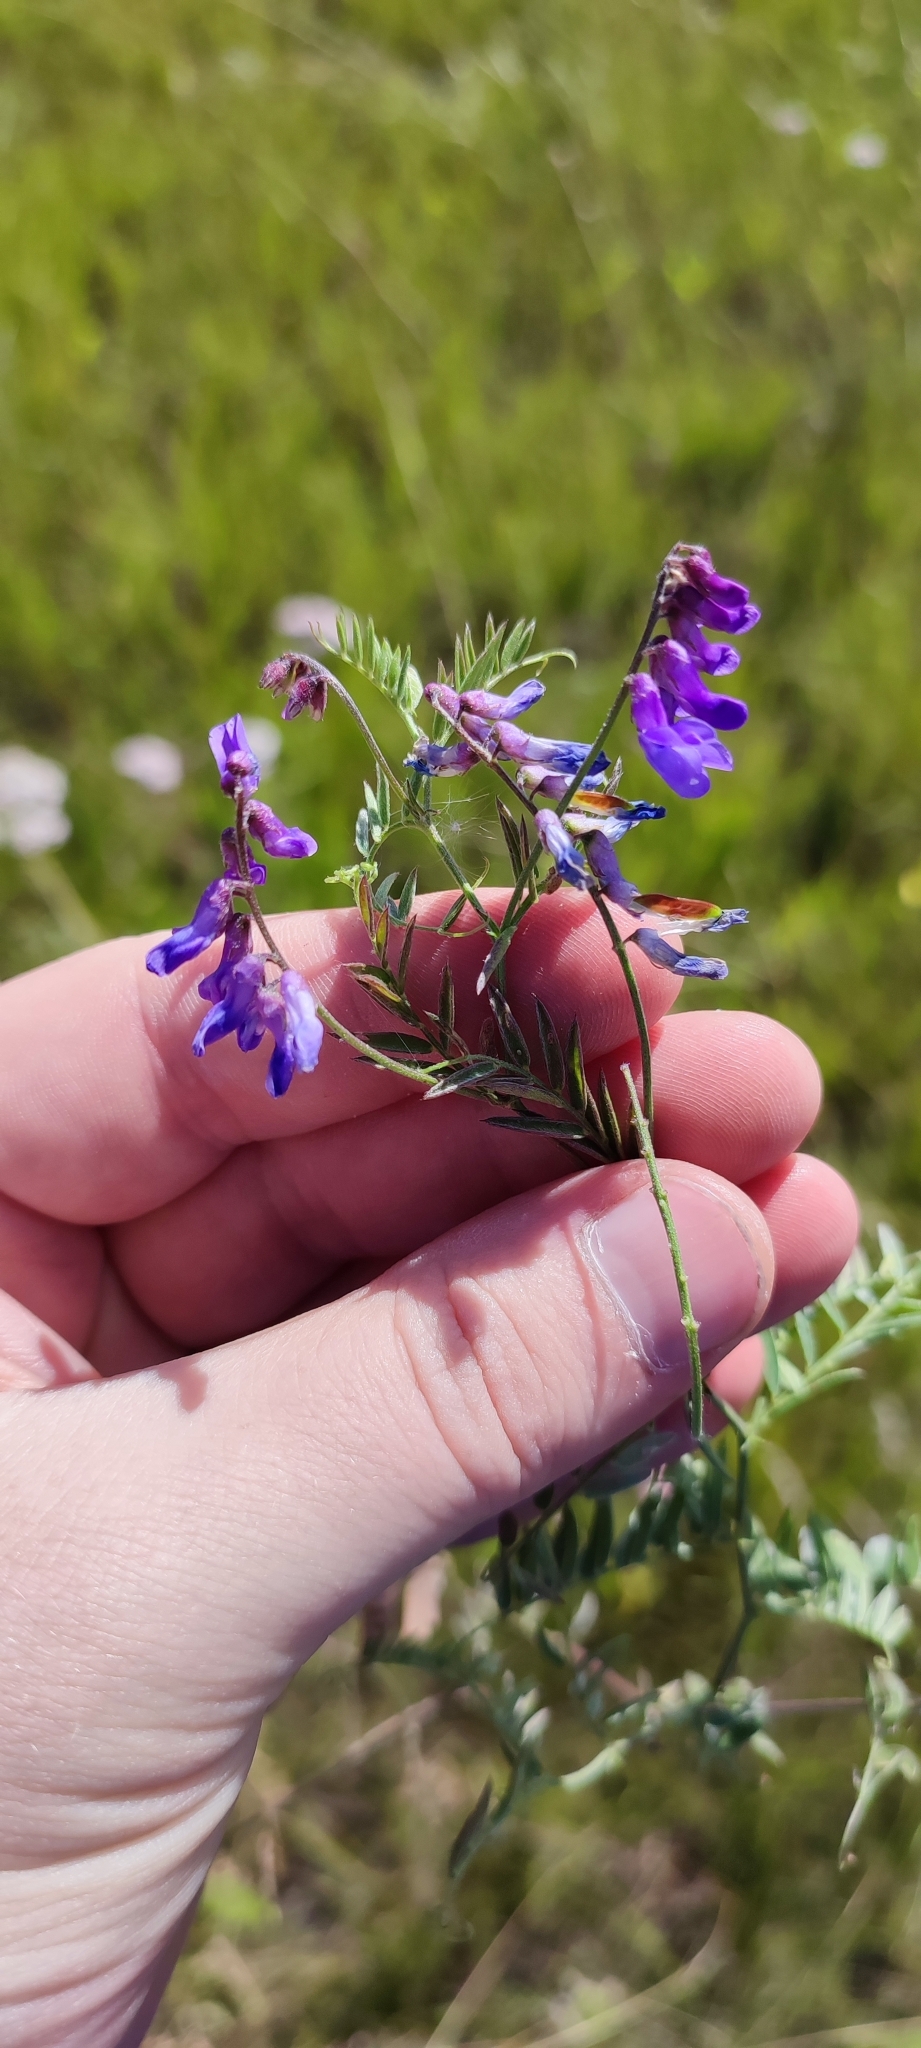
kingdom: Plantae
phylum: Tracheophyta
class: Magnoliopsida
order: Fabales
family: Fabaceae
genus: Vicia
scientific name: Vicia cracca
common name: Bird vetch
